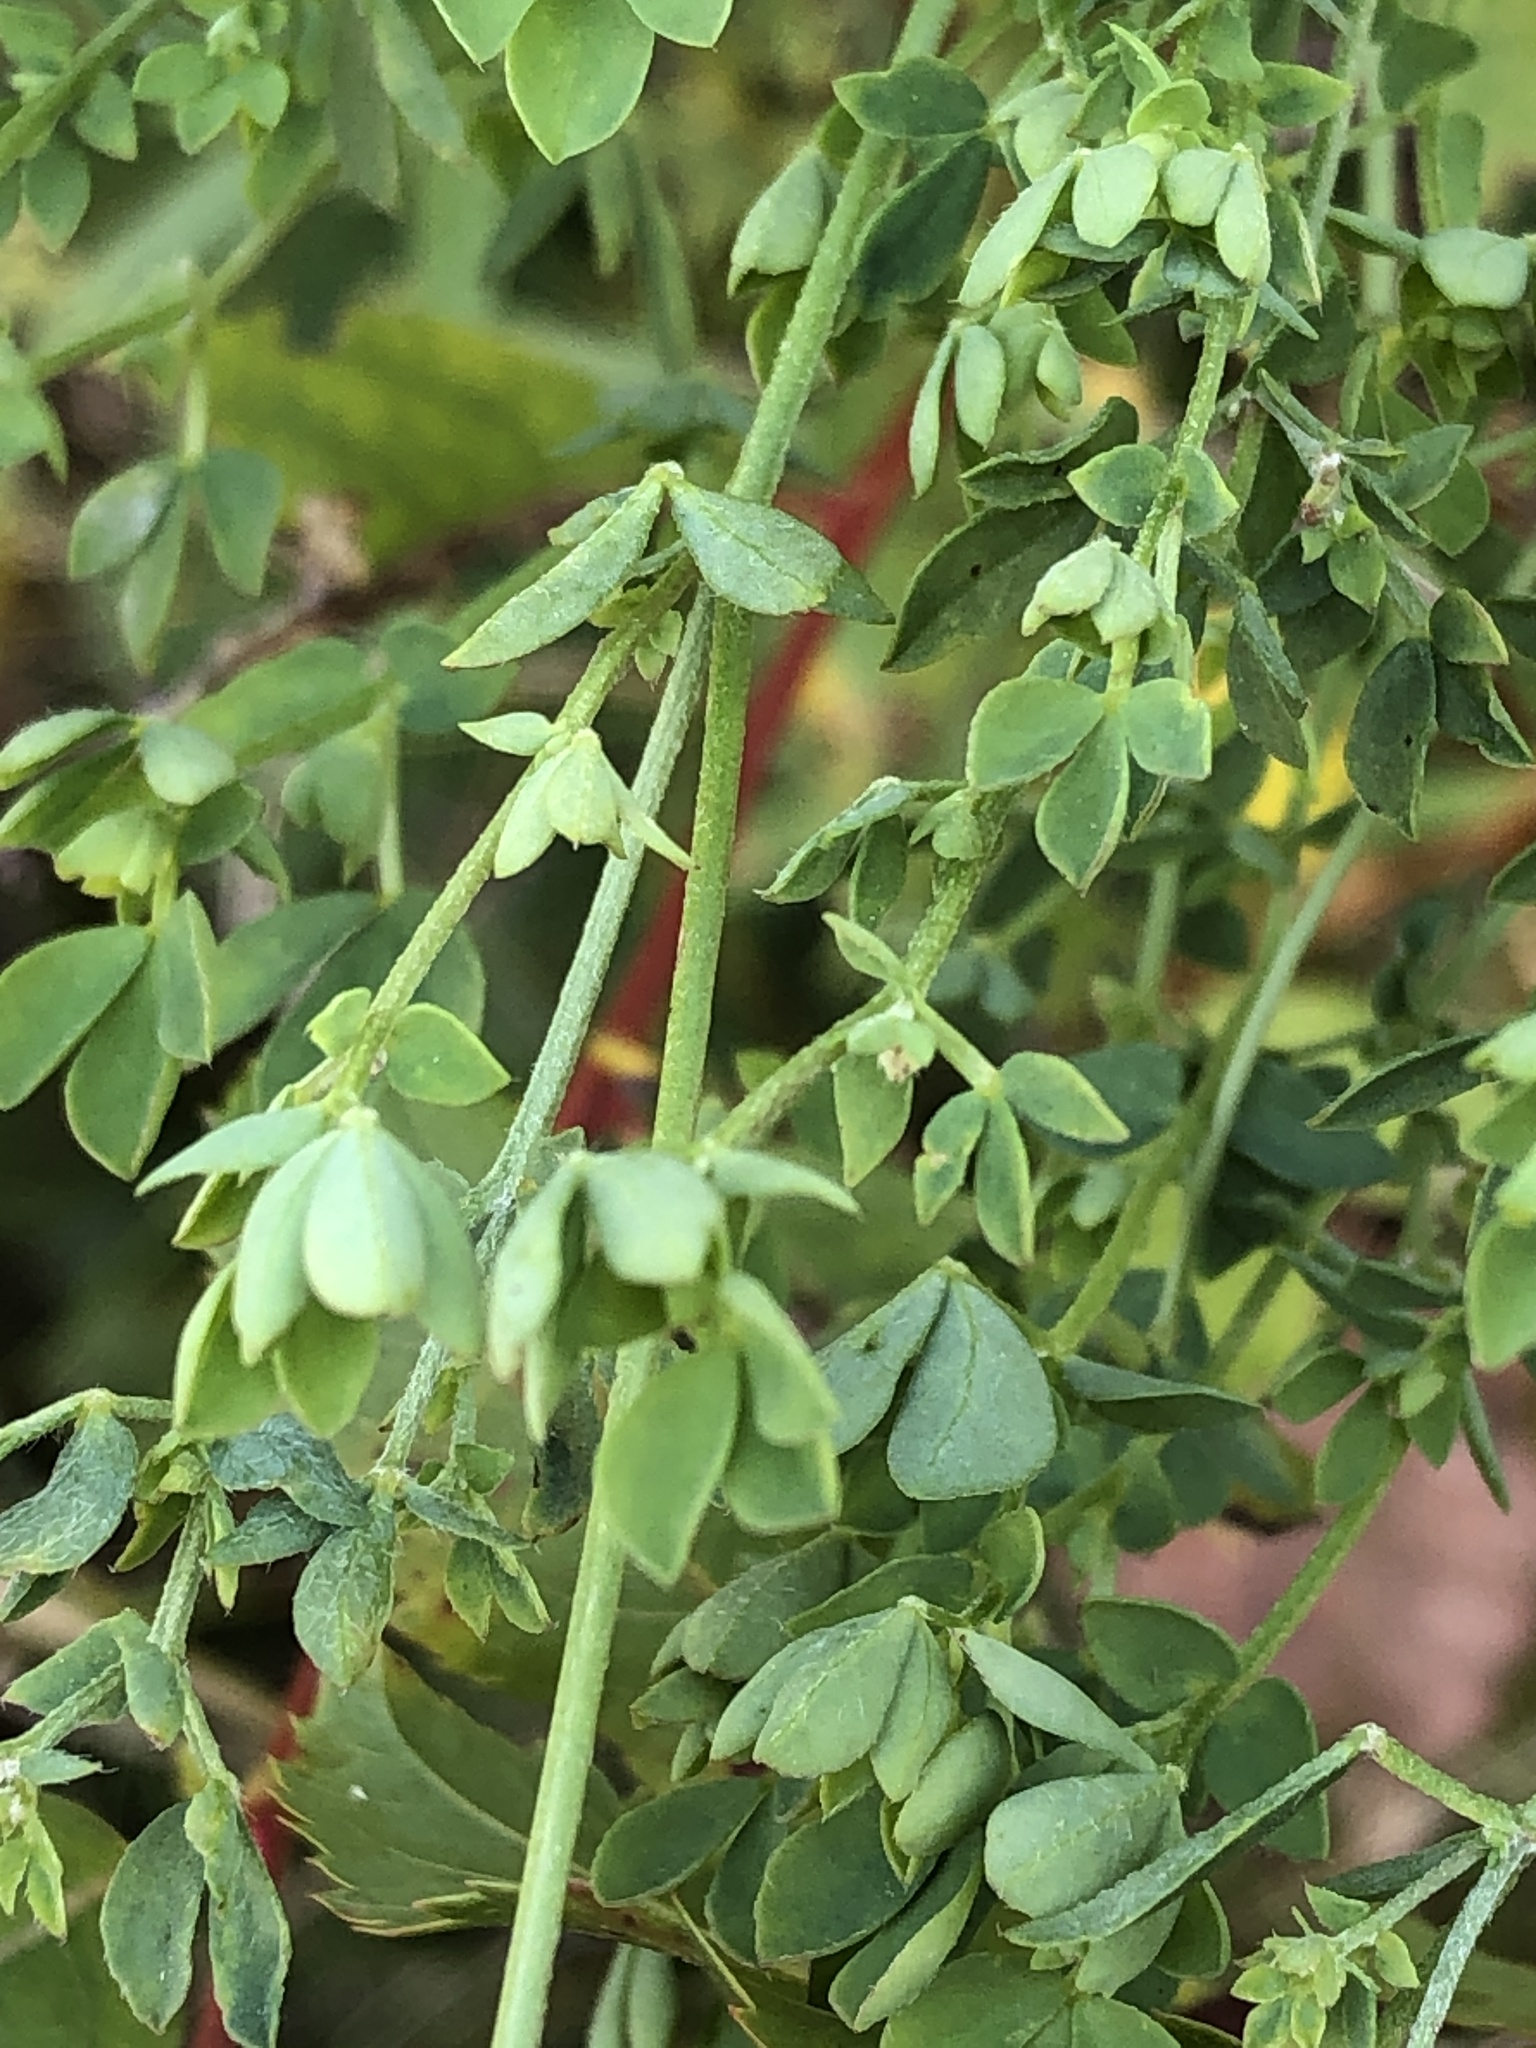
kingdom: Plantae
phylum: Tracheophyta
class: Magnoliopsida
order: Fabales
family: Fabaceae
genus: Lotus
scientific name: Lotus corniculatus
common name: Common bird's-foot-trefoil
